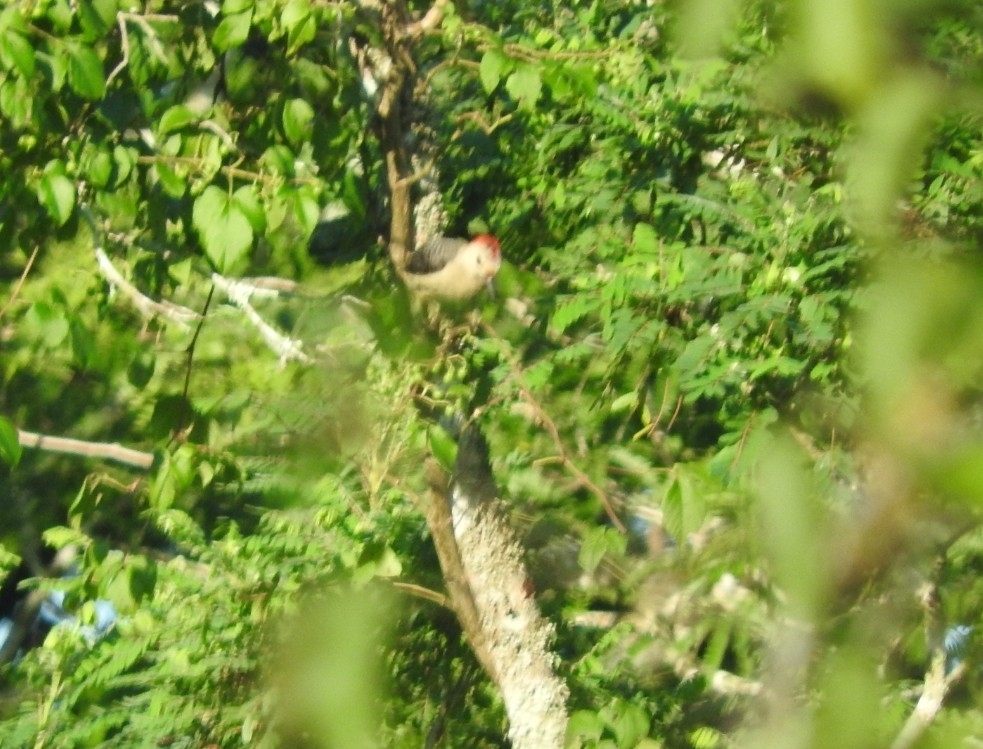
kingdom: Animalia
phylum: Chordata
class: Aves
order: Piciformes
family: Picidae
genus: Melanerpes
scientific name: Melanerpes aurifrons
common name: Golden-fronted woodpecker
